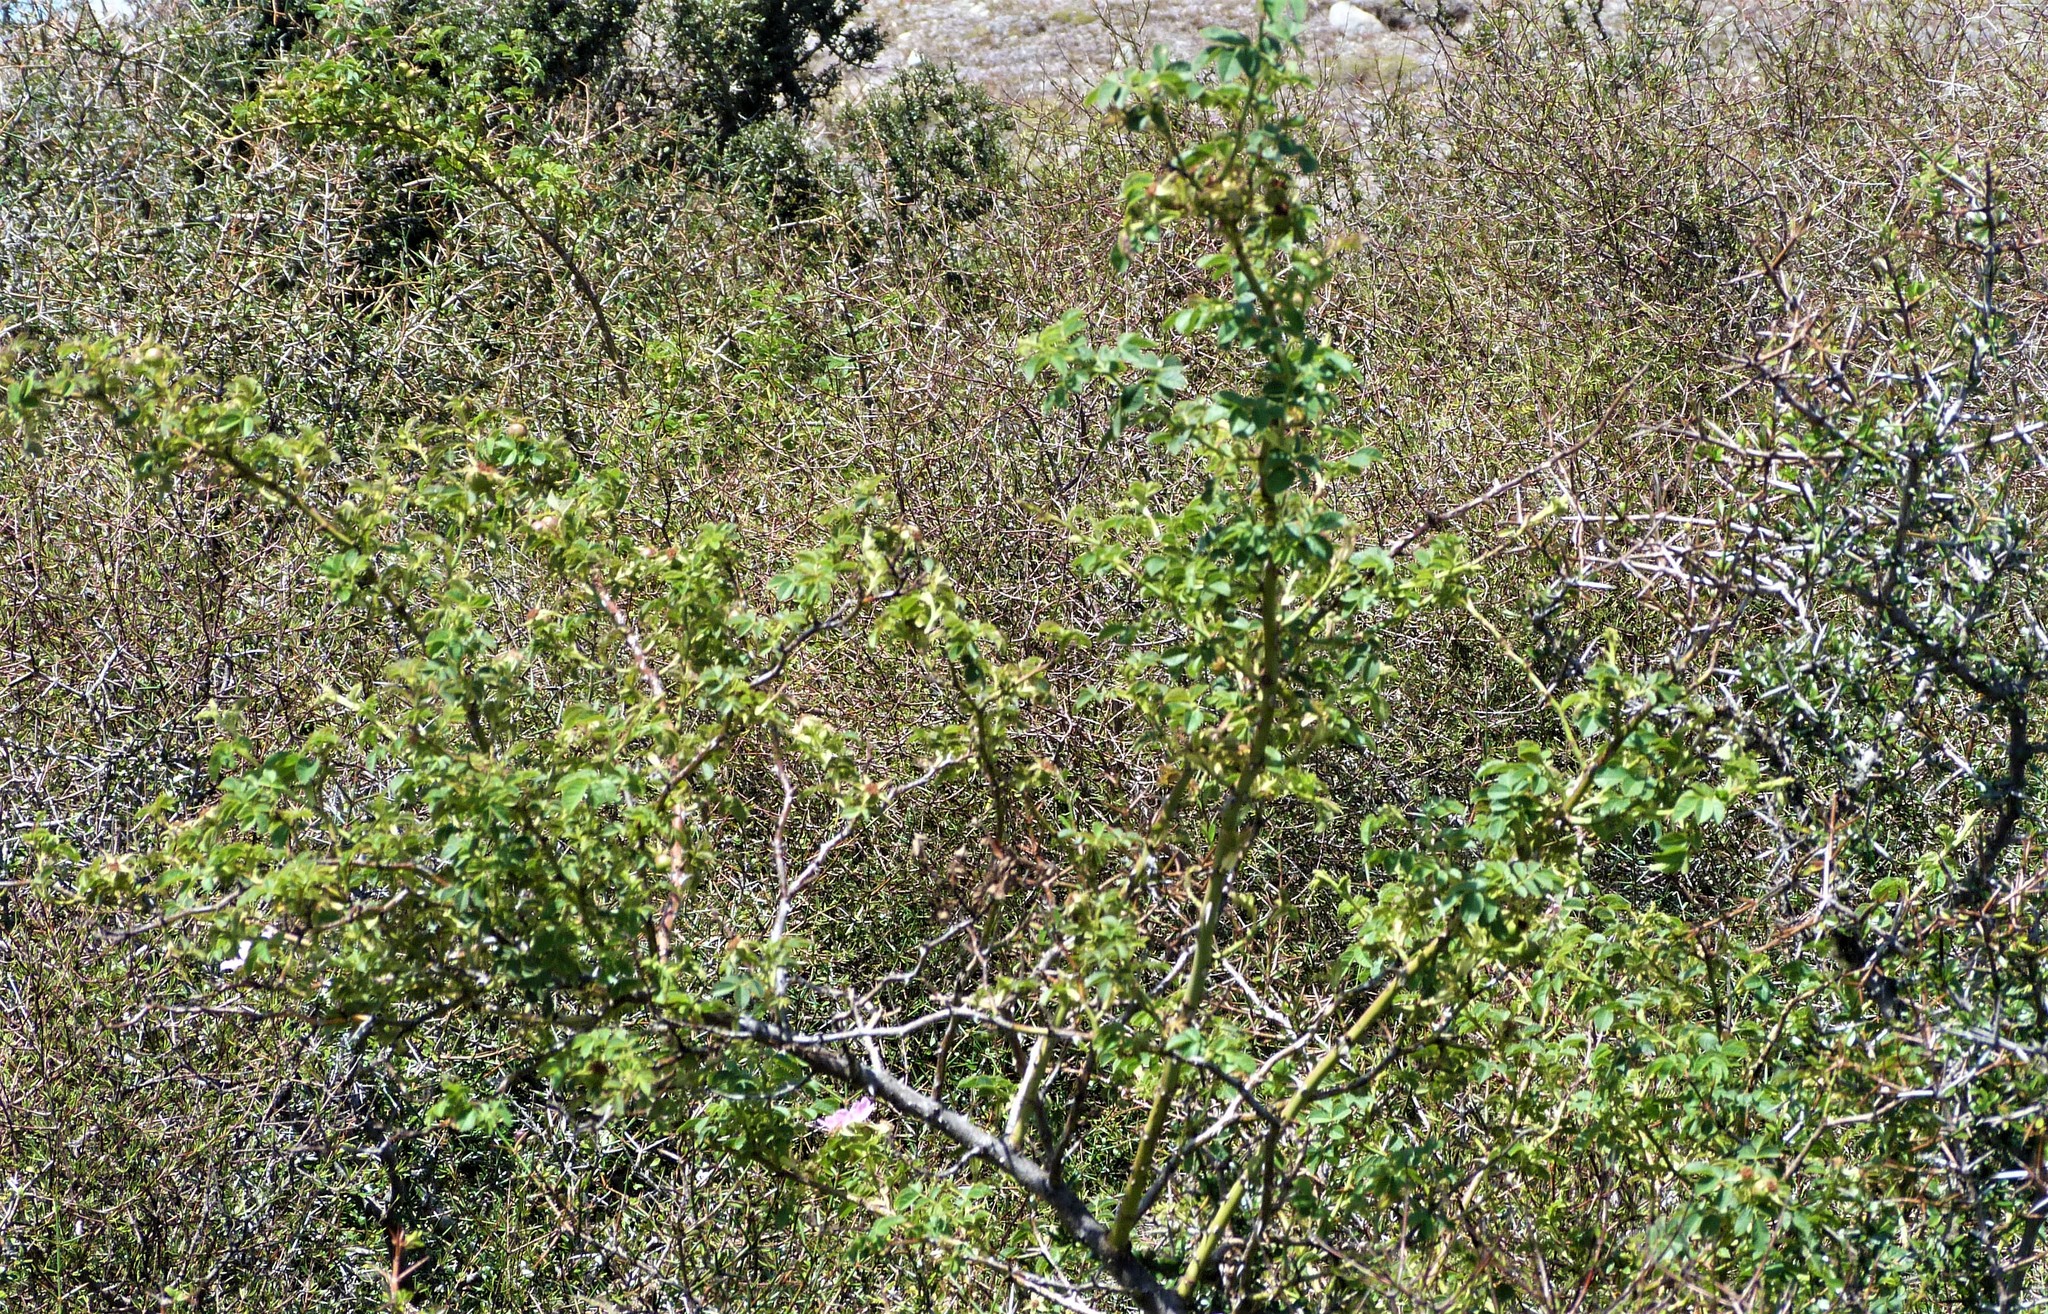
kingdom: Plantae
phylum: Tracheophyta
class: Magnoliopsida
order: Rosales
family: Rosaceae
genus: Rosa
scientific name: Rosa rubiginosa
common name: Sweet-briar
